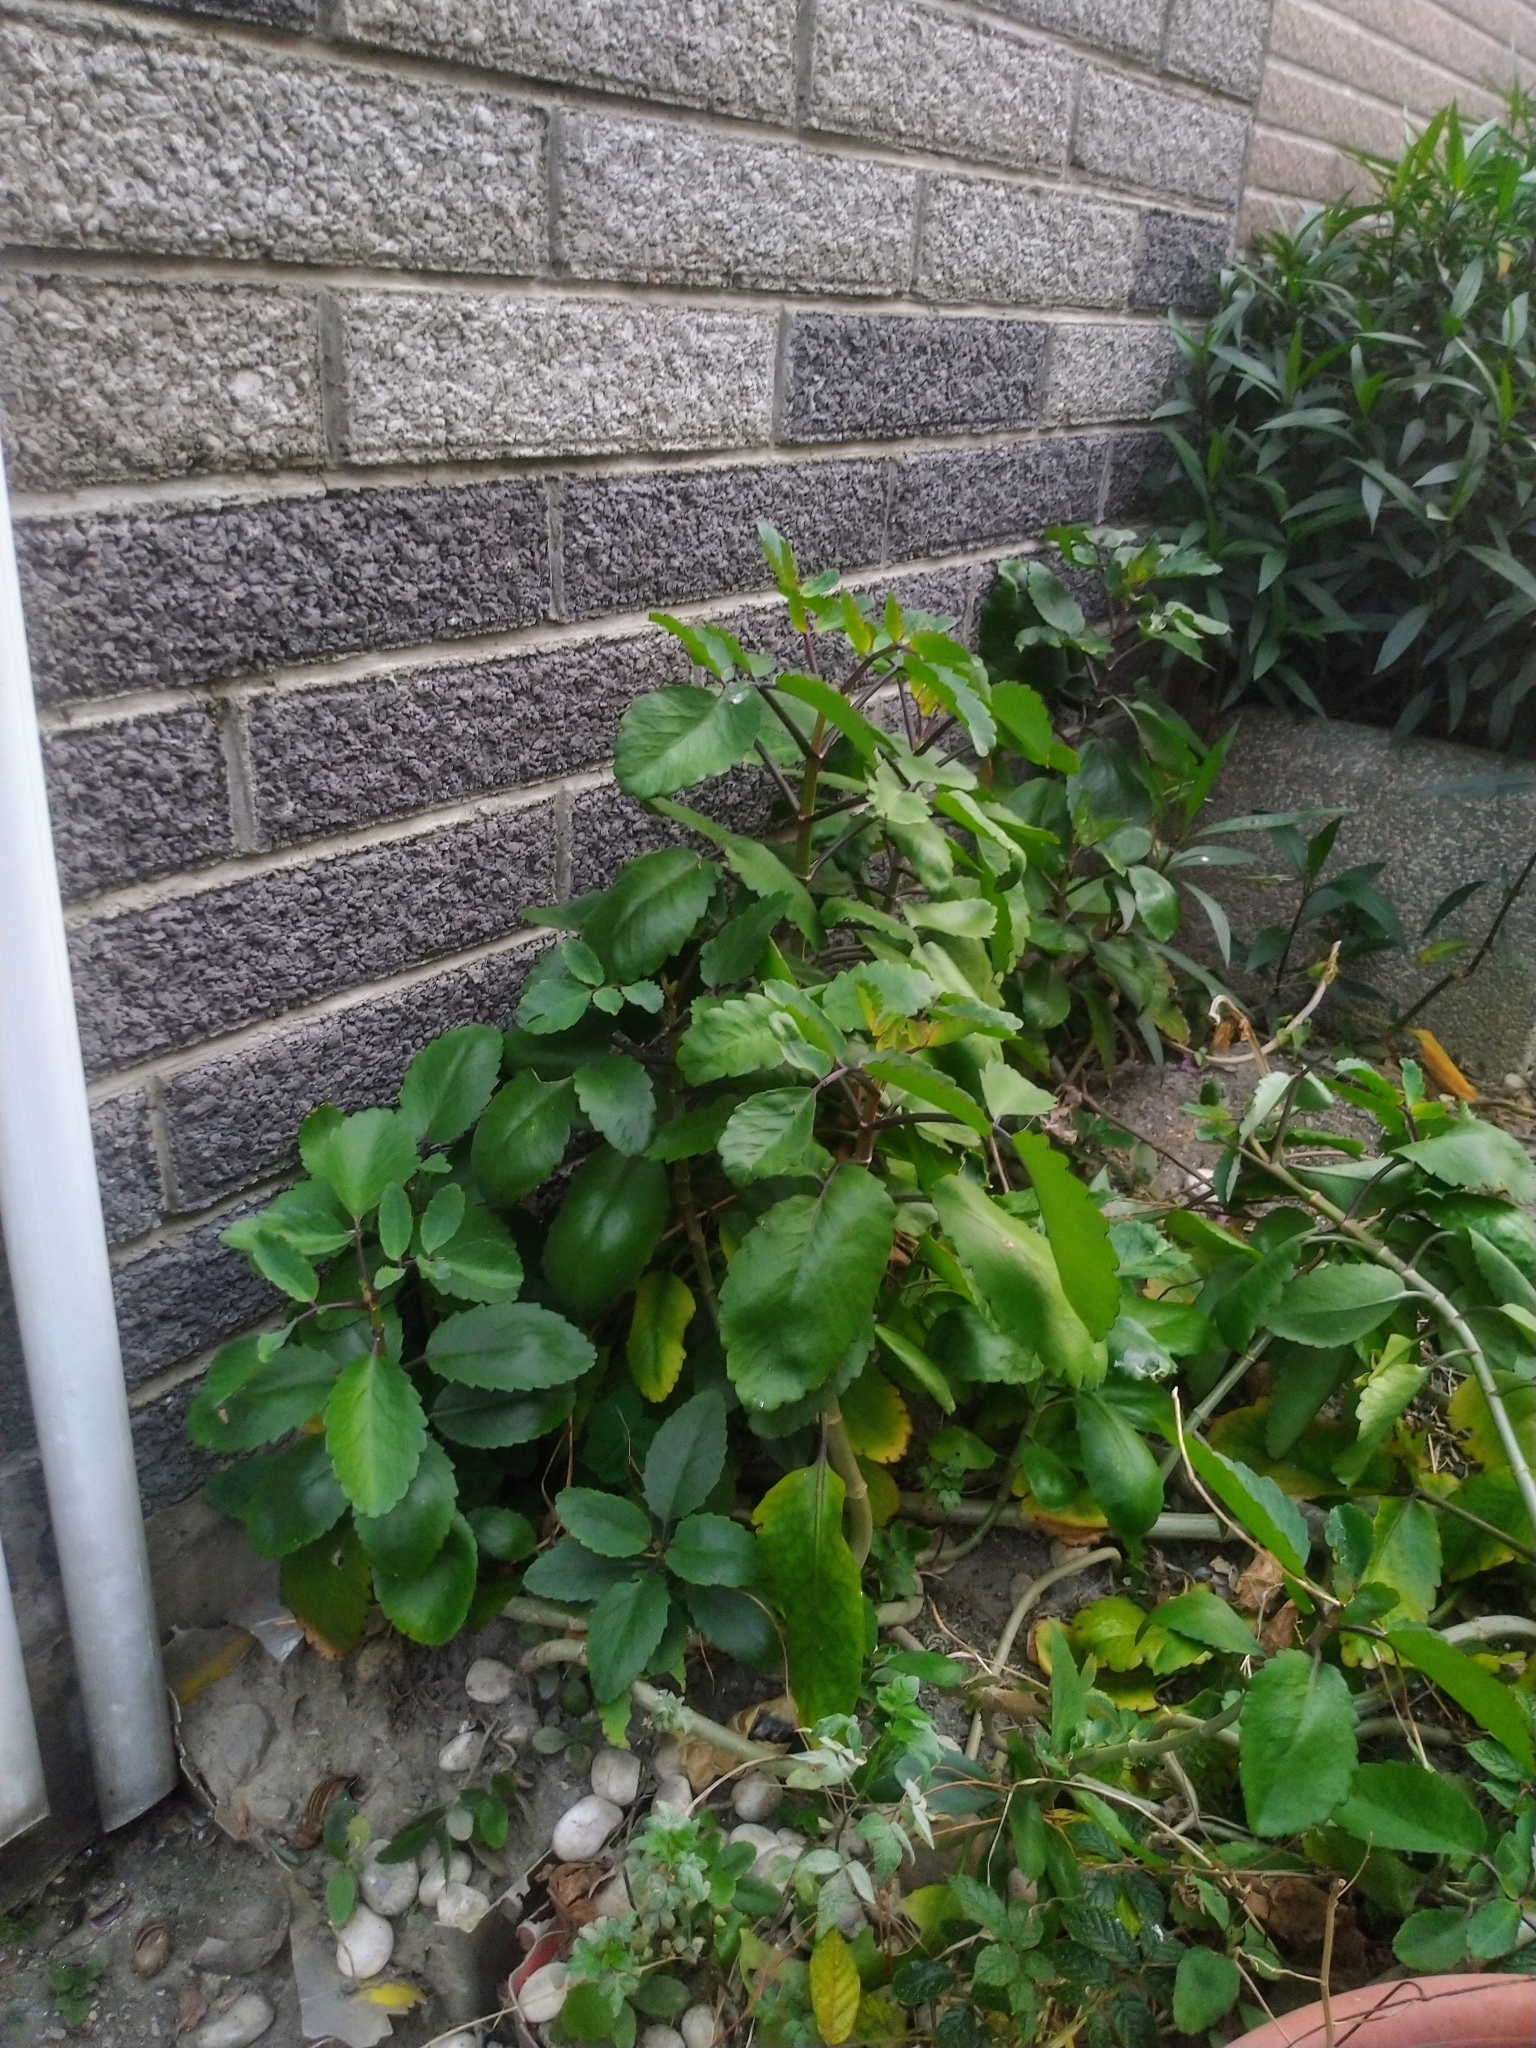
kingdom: Plantae
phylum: Tracheophyta
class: Magnoliopsida
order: Saxifragales
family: Crassulaceae
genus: Kalanchoe
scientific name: Kalanchoe pinnata
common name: Cathedral bells
